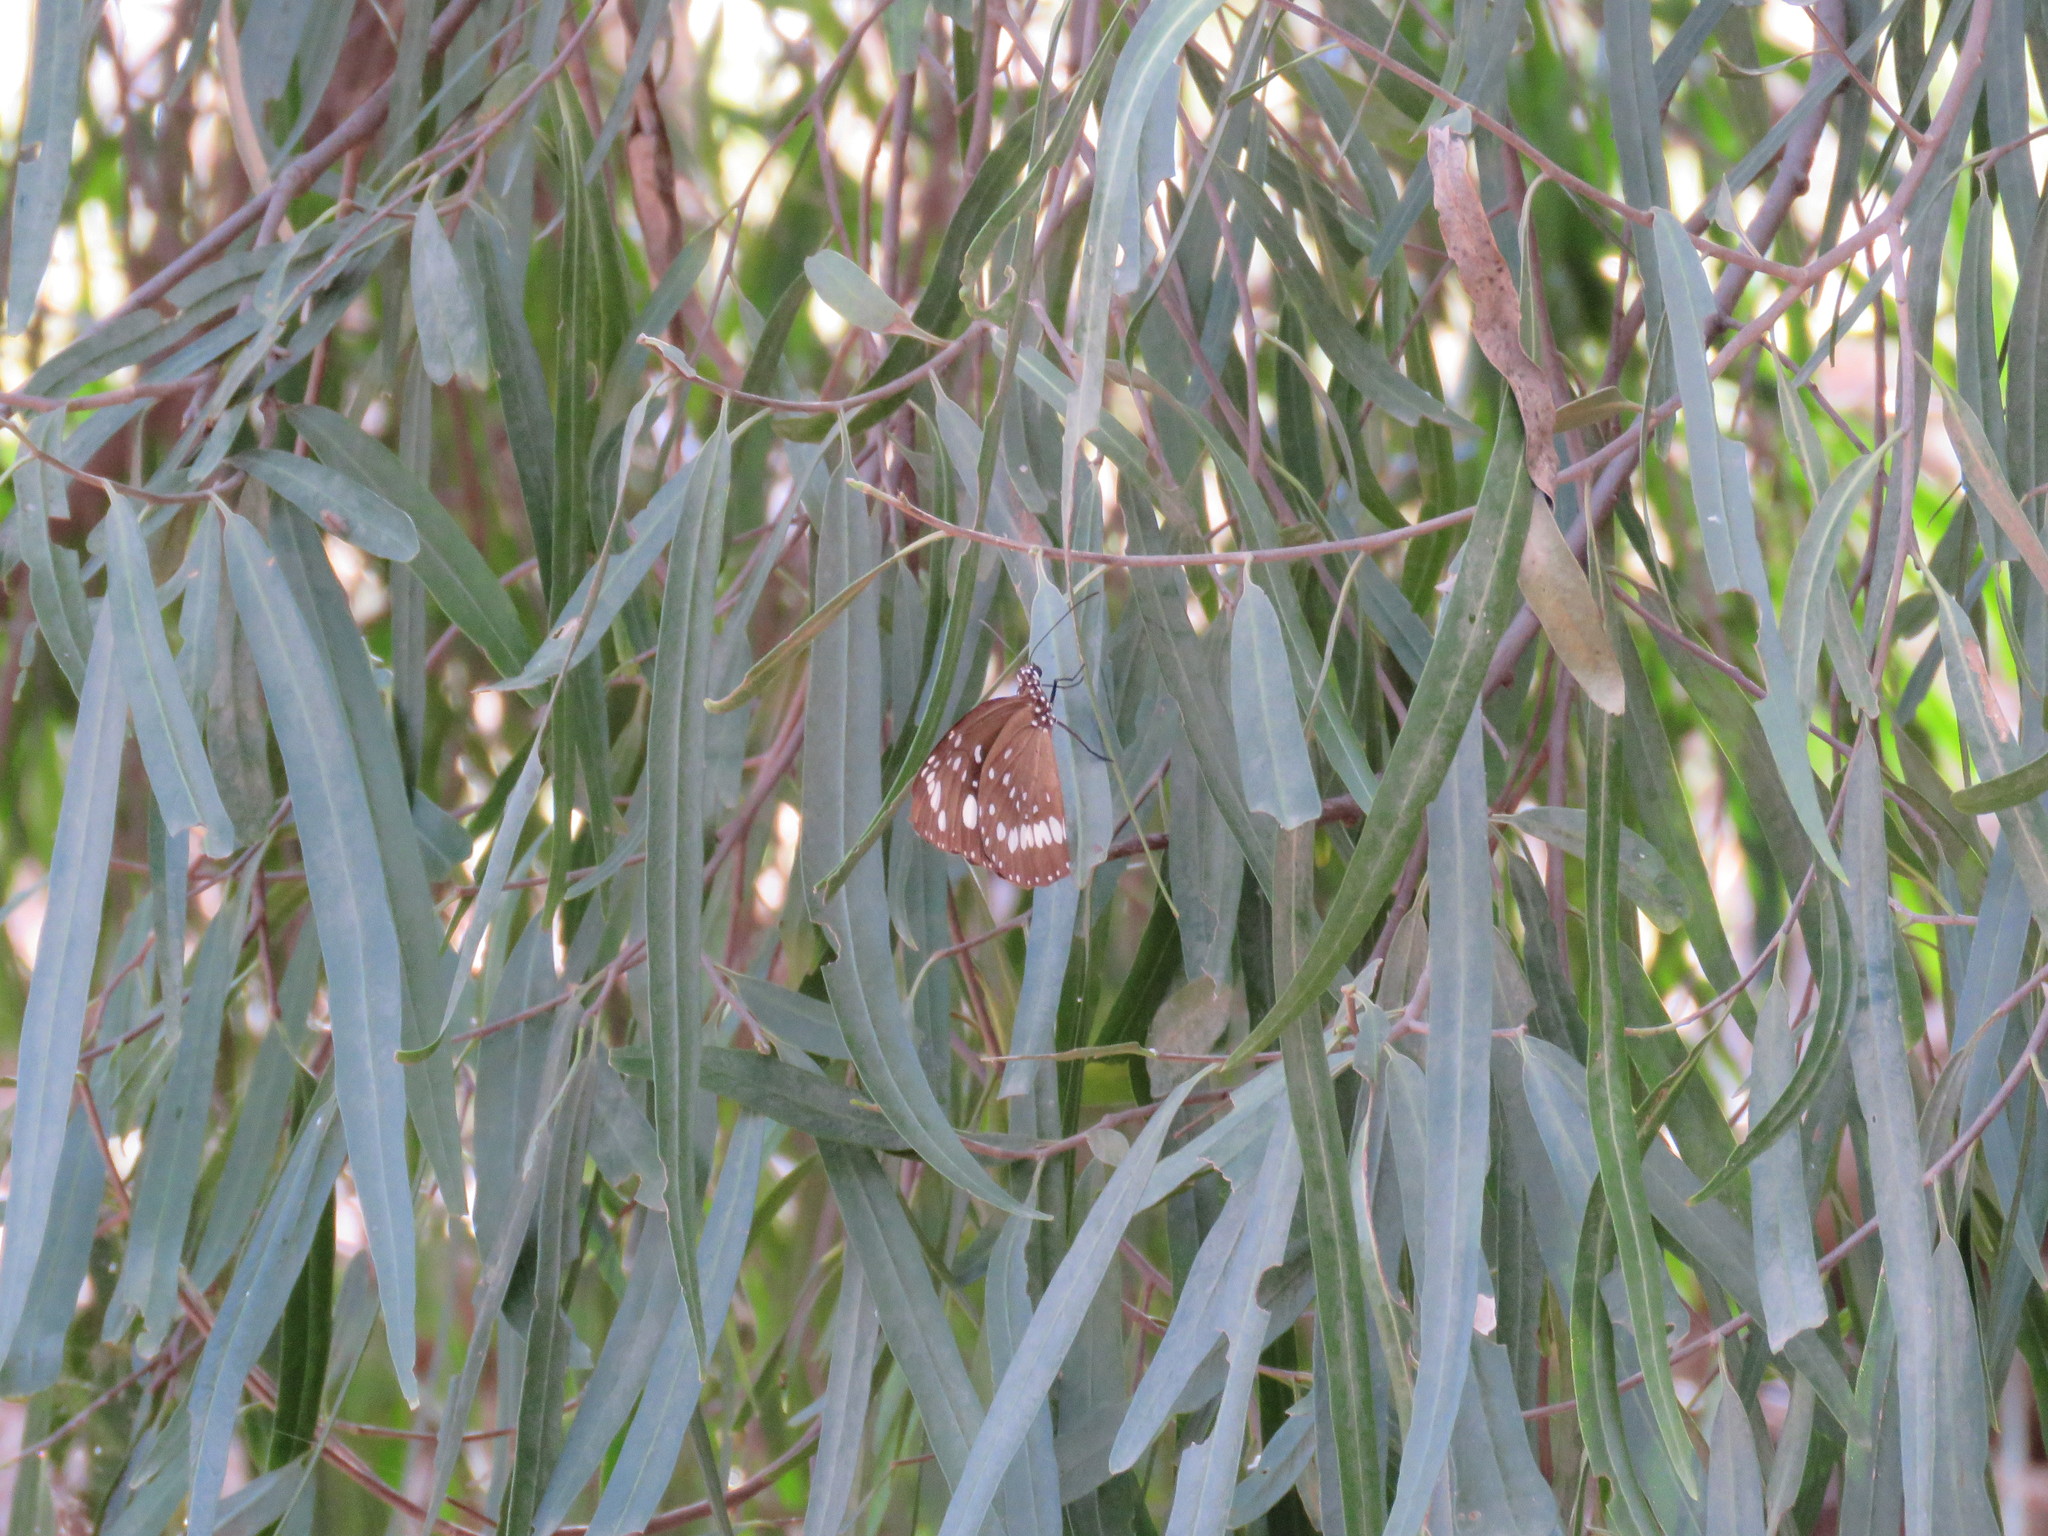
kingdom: Animalia
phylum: Arthropoda
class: Insecta
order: Lepidoptera
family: Nymphalidae
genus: Euploea
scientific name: Euploea core
